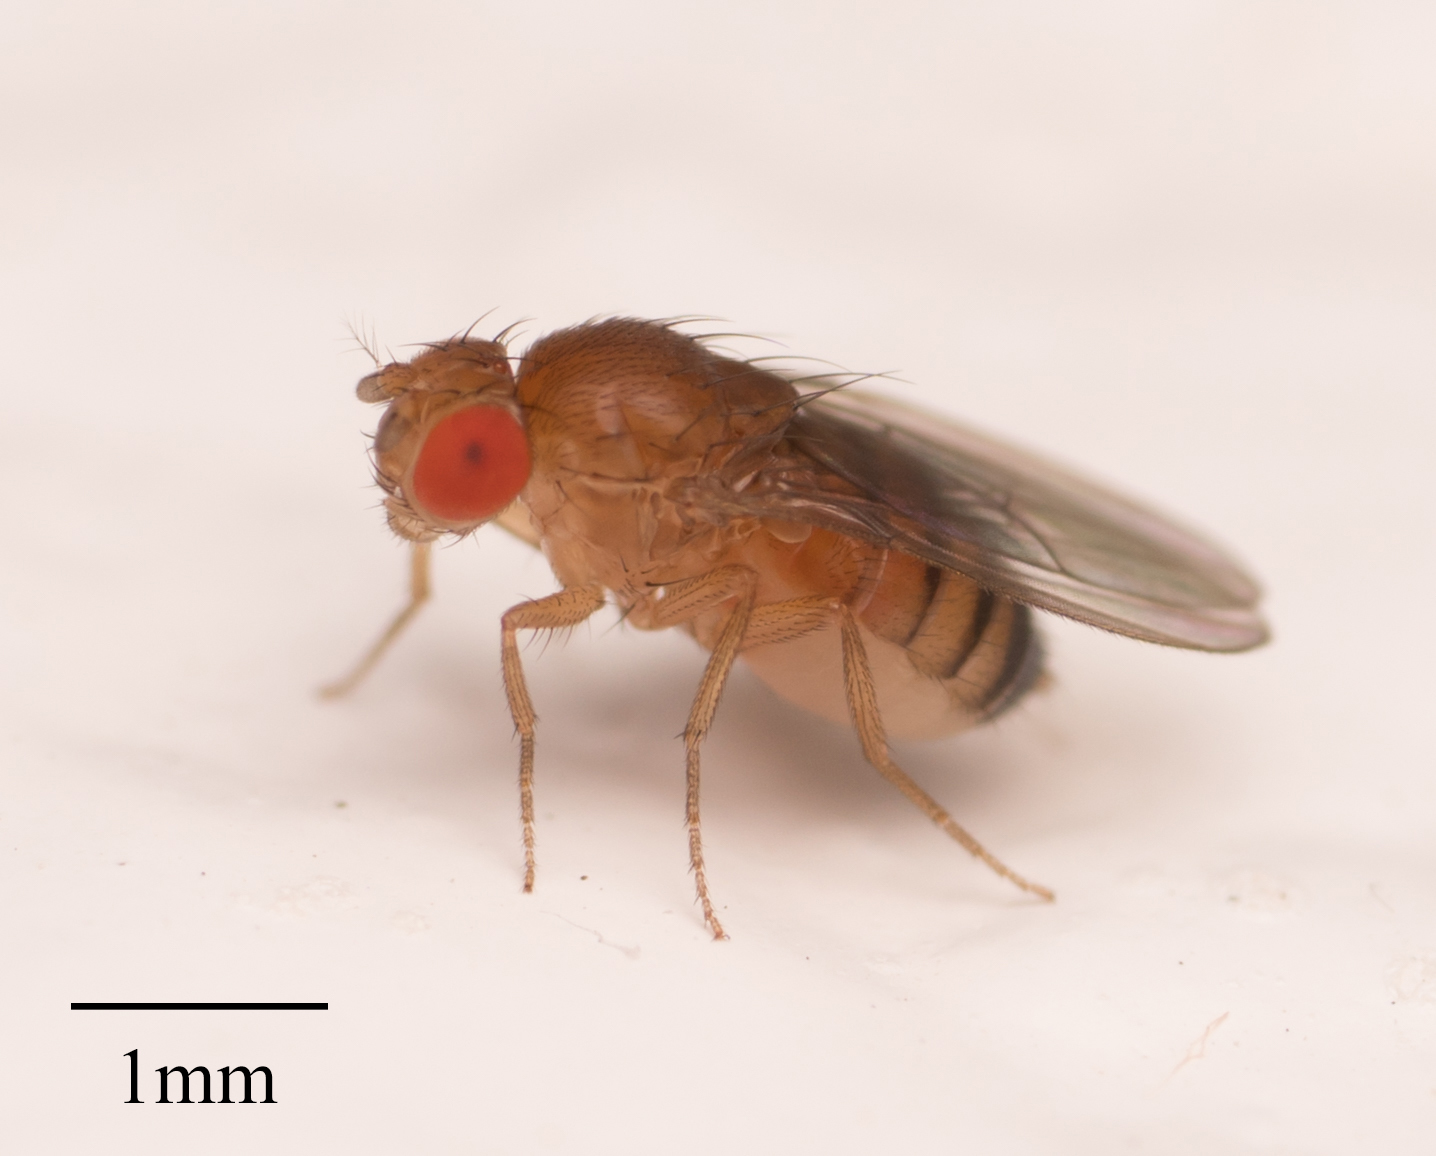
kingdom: Animalia
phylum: Arthropoda
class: Insecta
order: Diptera
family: Drosophilidae
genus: Drosophila
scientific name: Drosophila melanogaster
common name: Pomace fly
